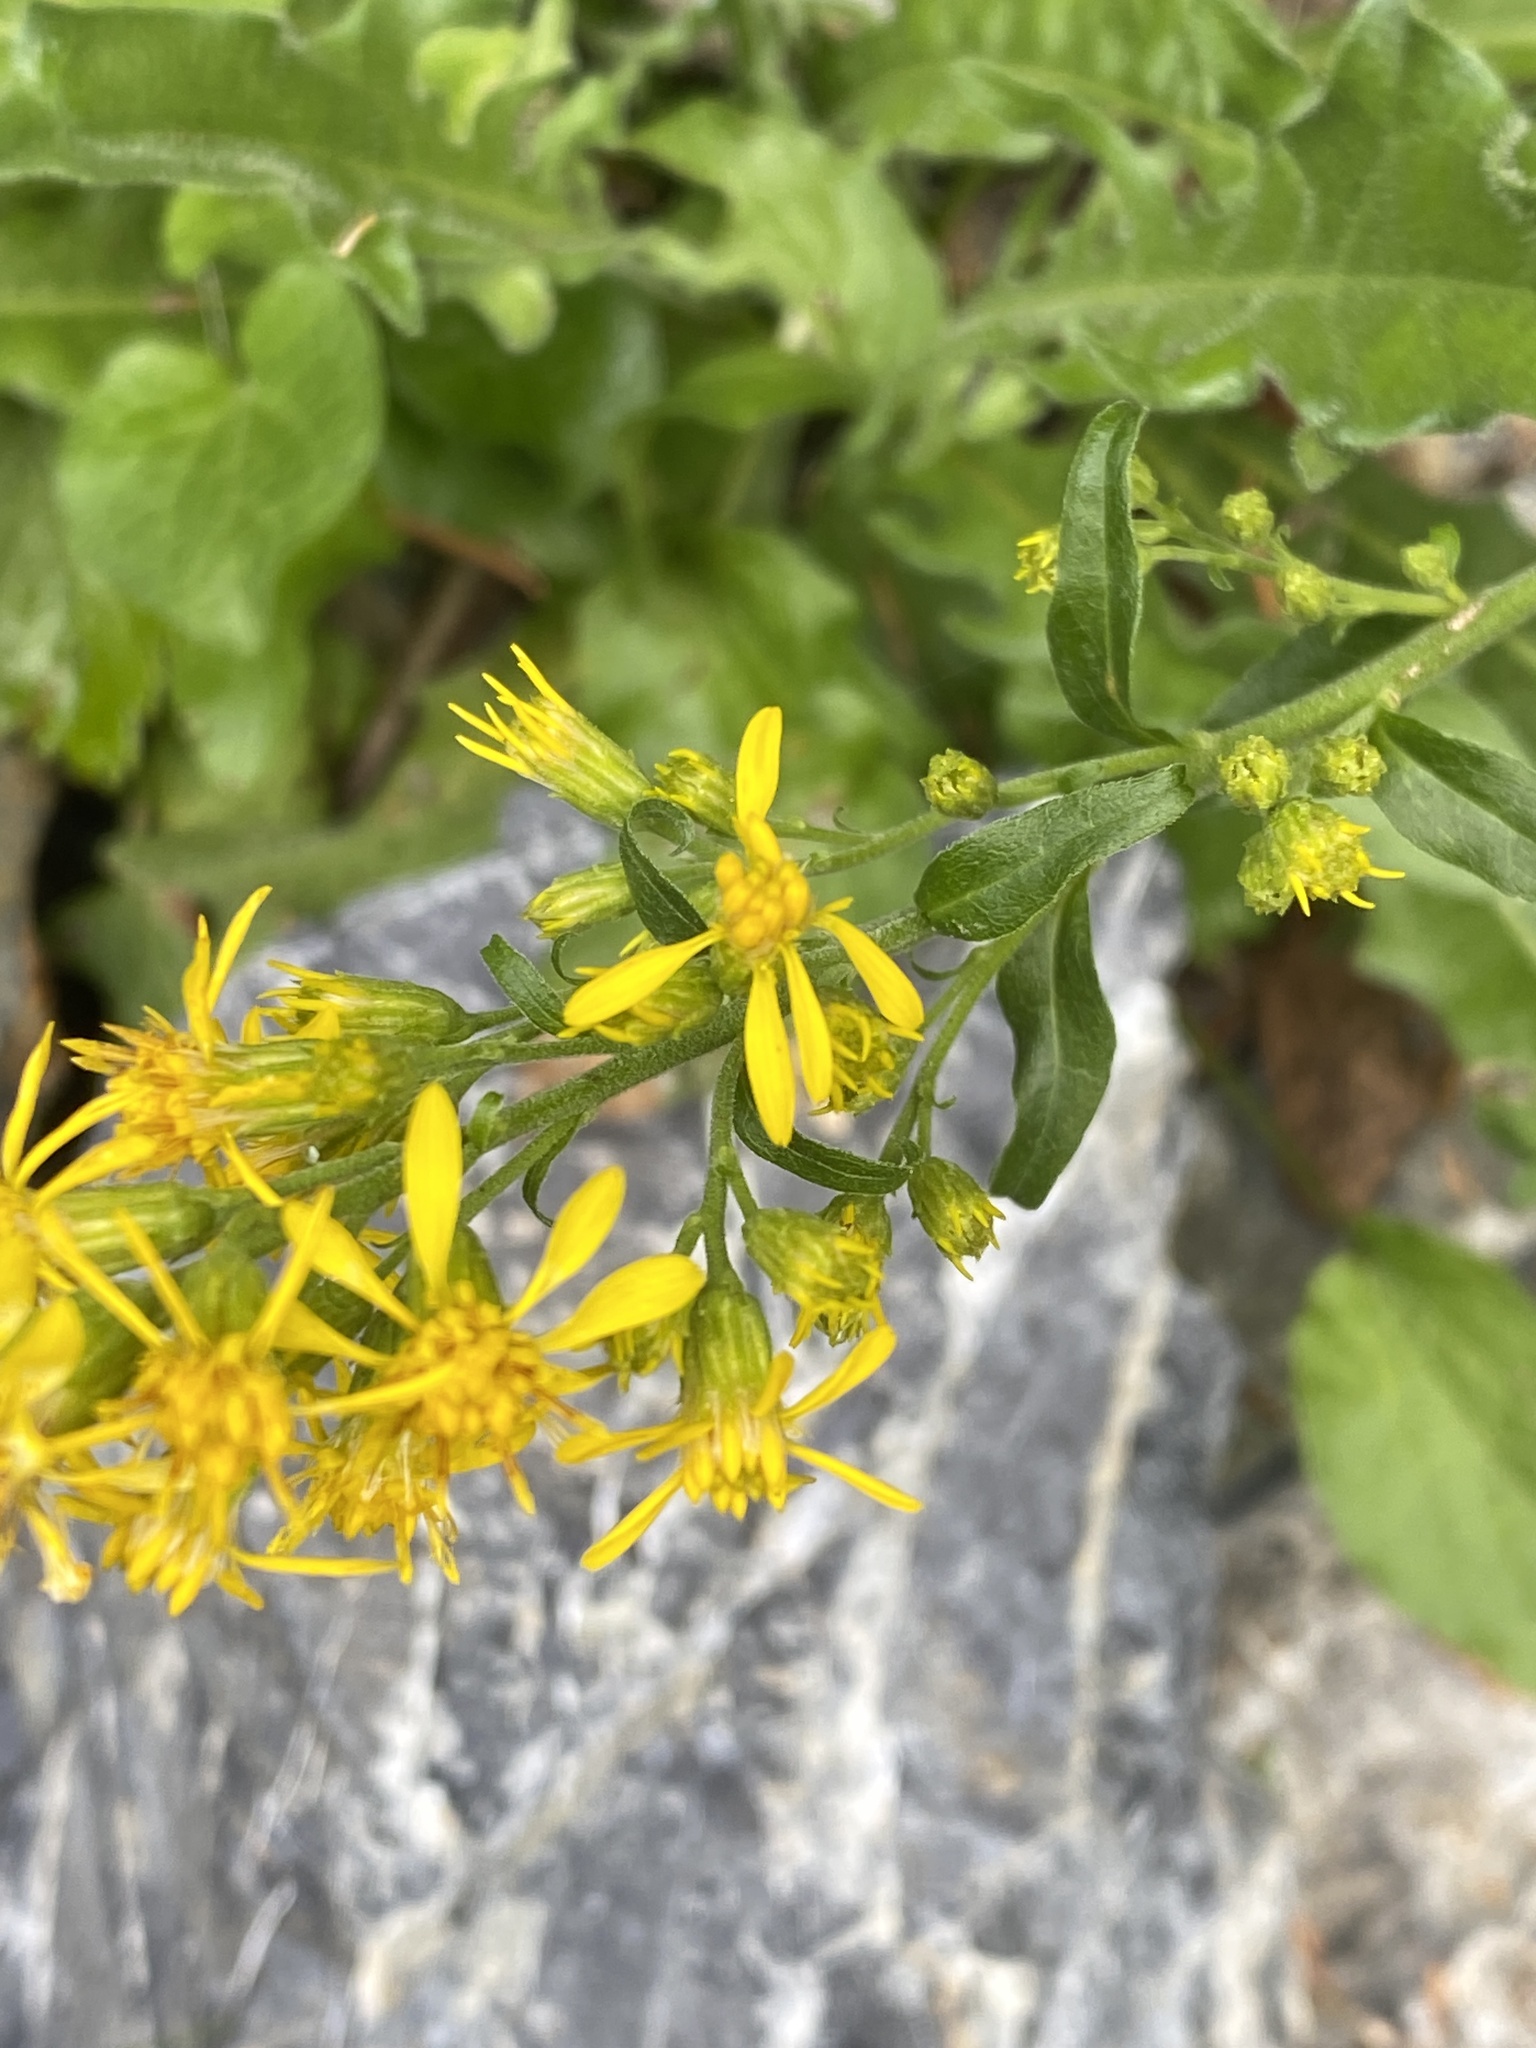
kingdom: Plantae
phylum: Tracheophyta
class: Magnoliopsida
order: Asterales
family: Asteraceae
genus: Solidago
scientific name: Solidago virgaurea
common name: Goldenrod
